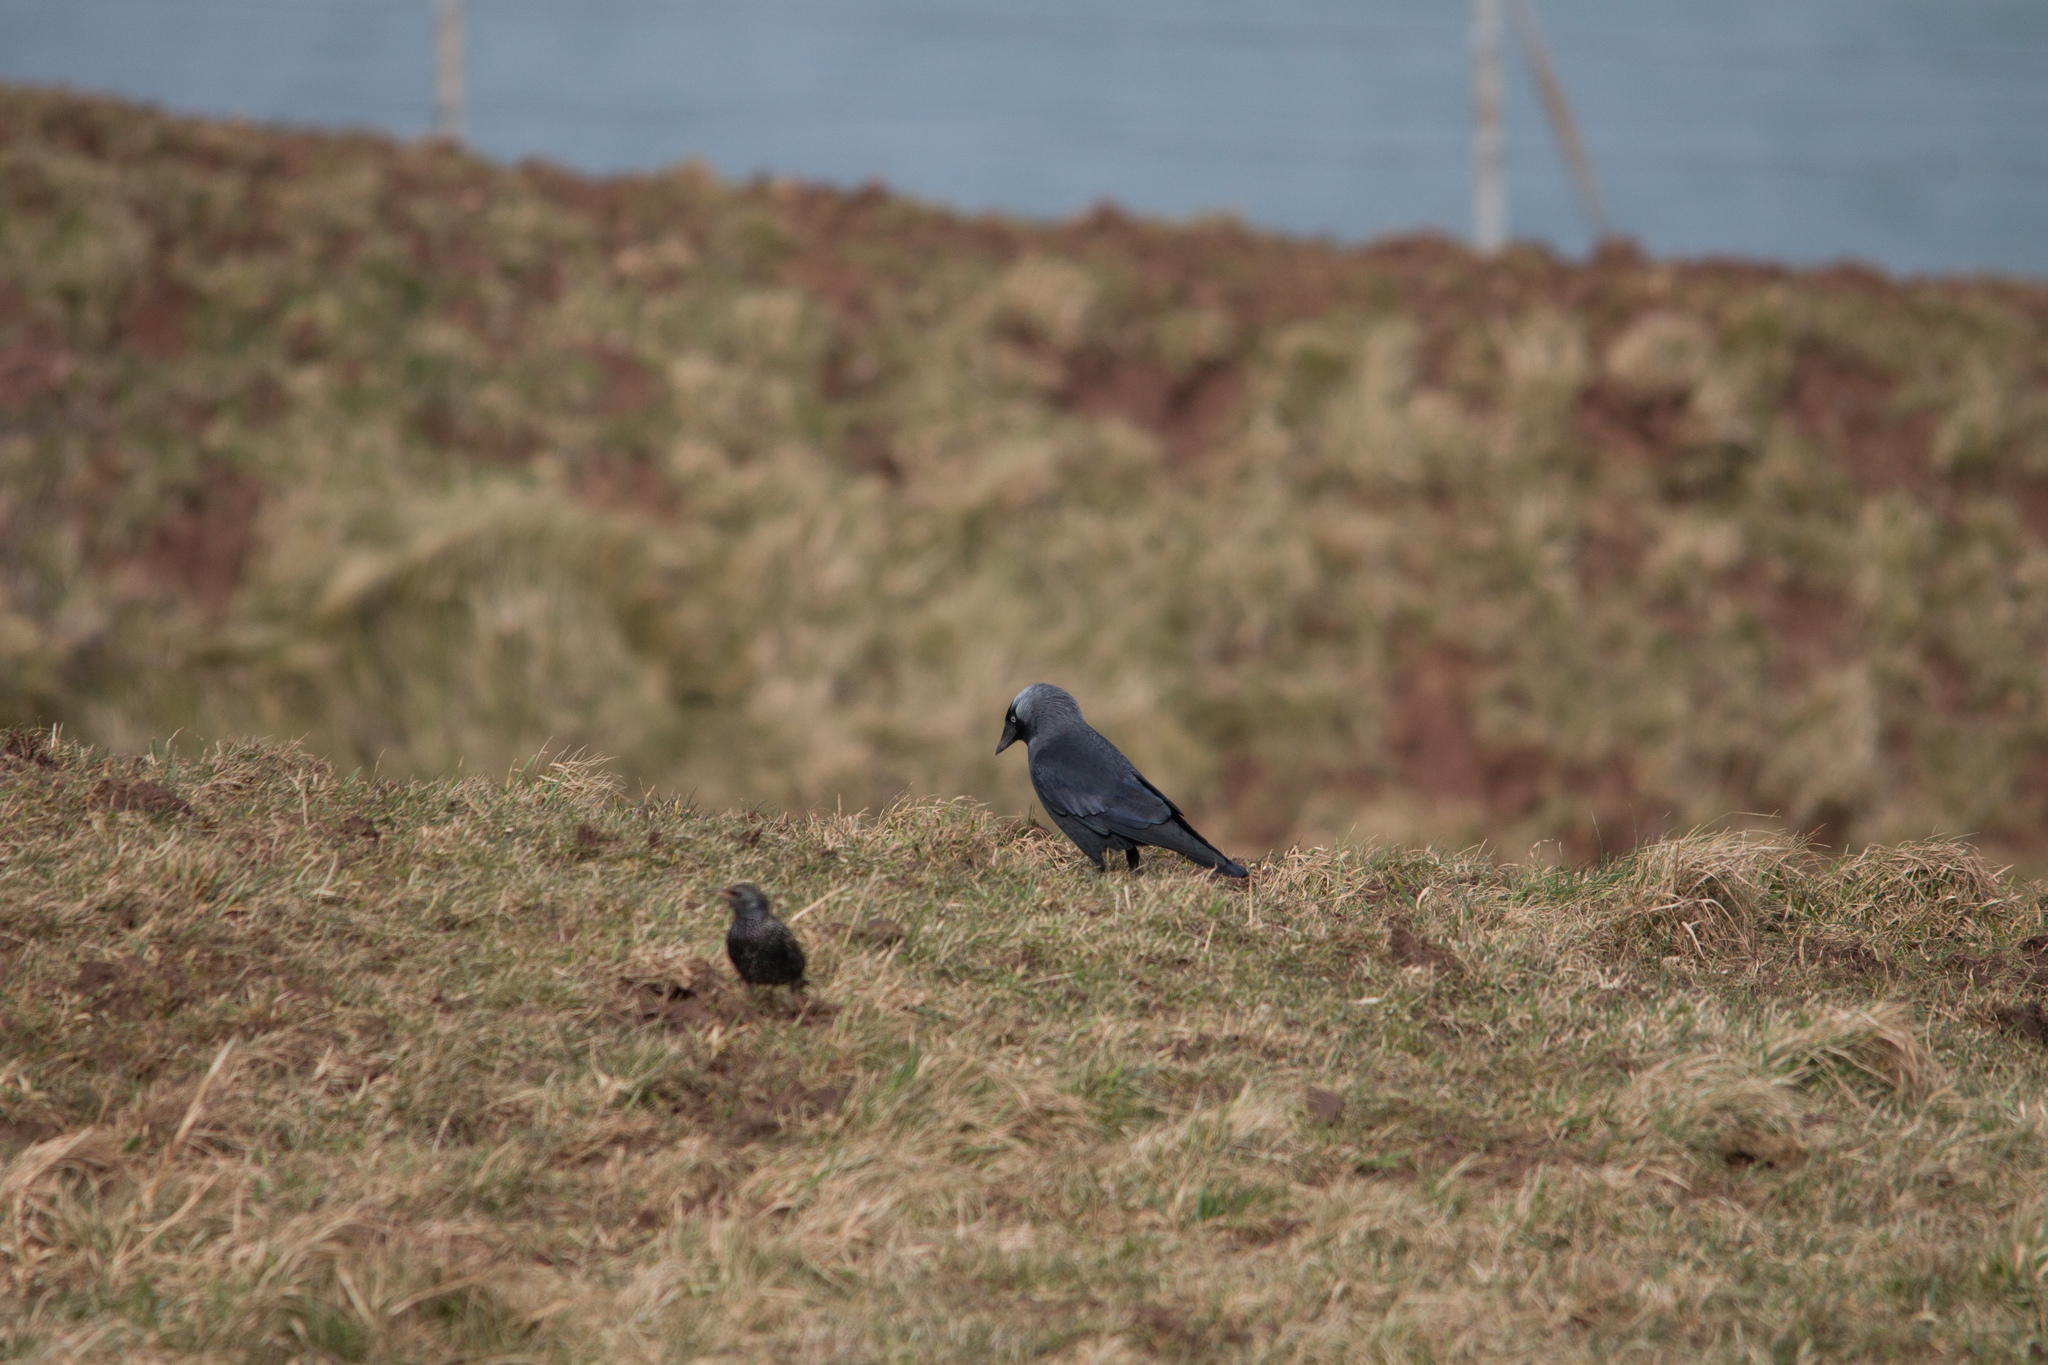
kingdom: Animalia
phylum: Chordata
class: Aves
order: Passeriformes
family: Corvidae
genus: Coloeus
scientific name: Coloeus monedula
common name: Western jackdaw
